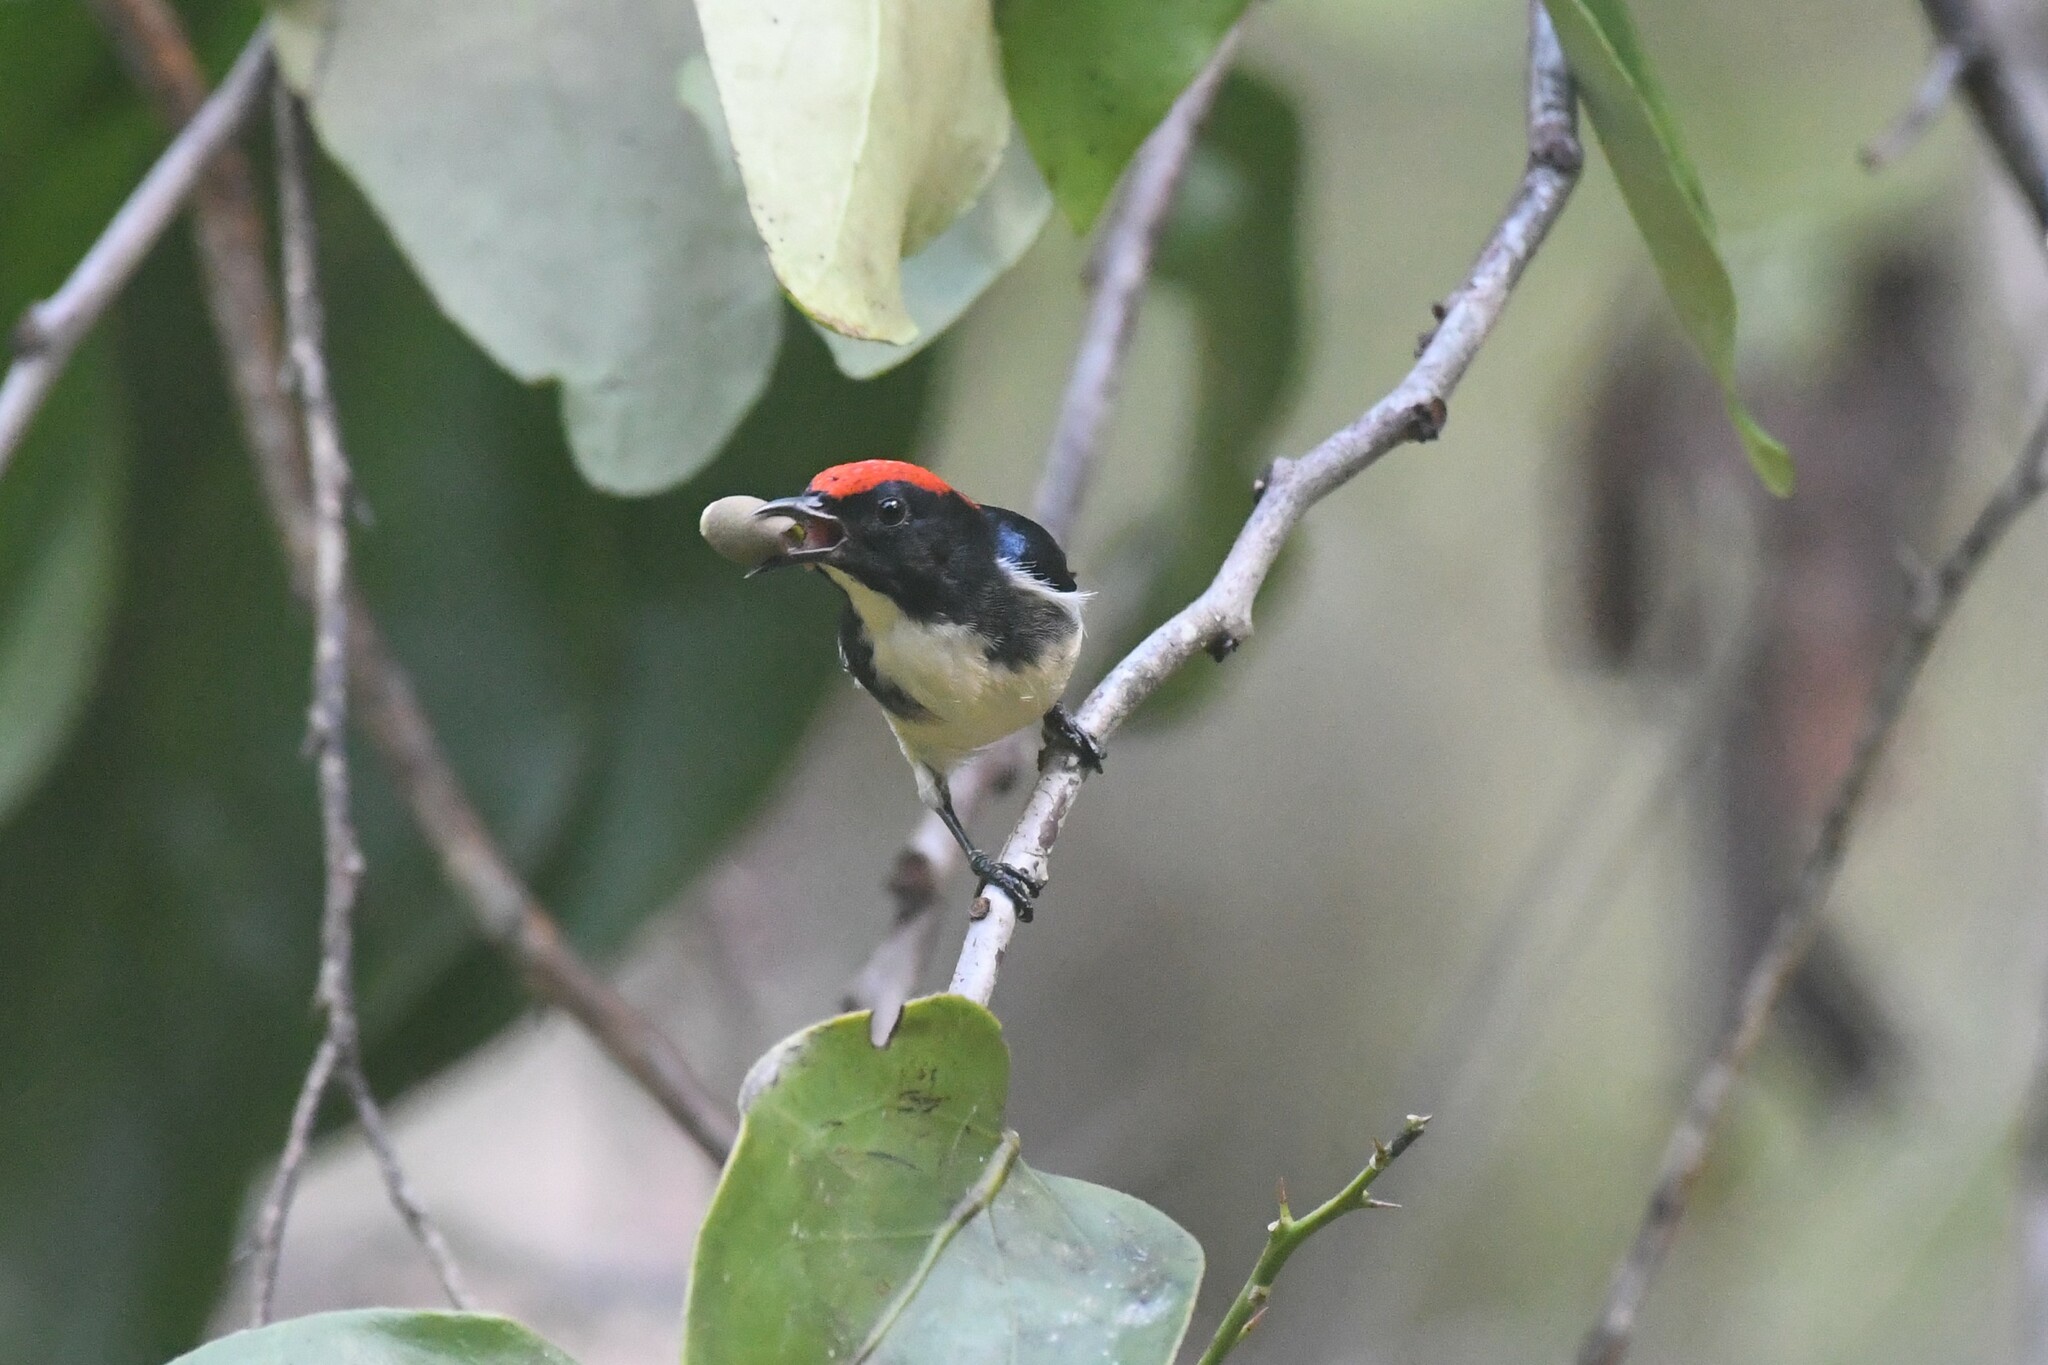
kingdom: Animalia
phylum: Chordata
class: Aves
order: Passeriformes
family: Dicaeidae
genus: Dicaeum
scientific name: Dicaeum cruentatum
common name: Scarlet-backed flowerpecker
